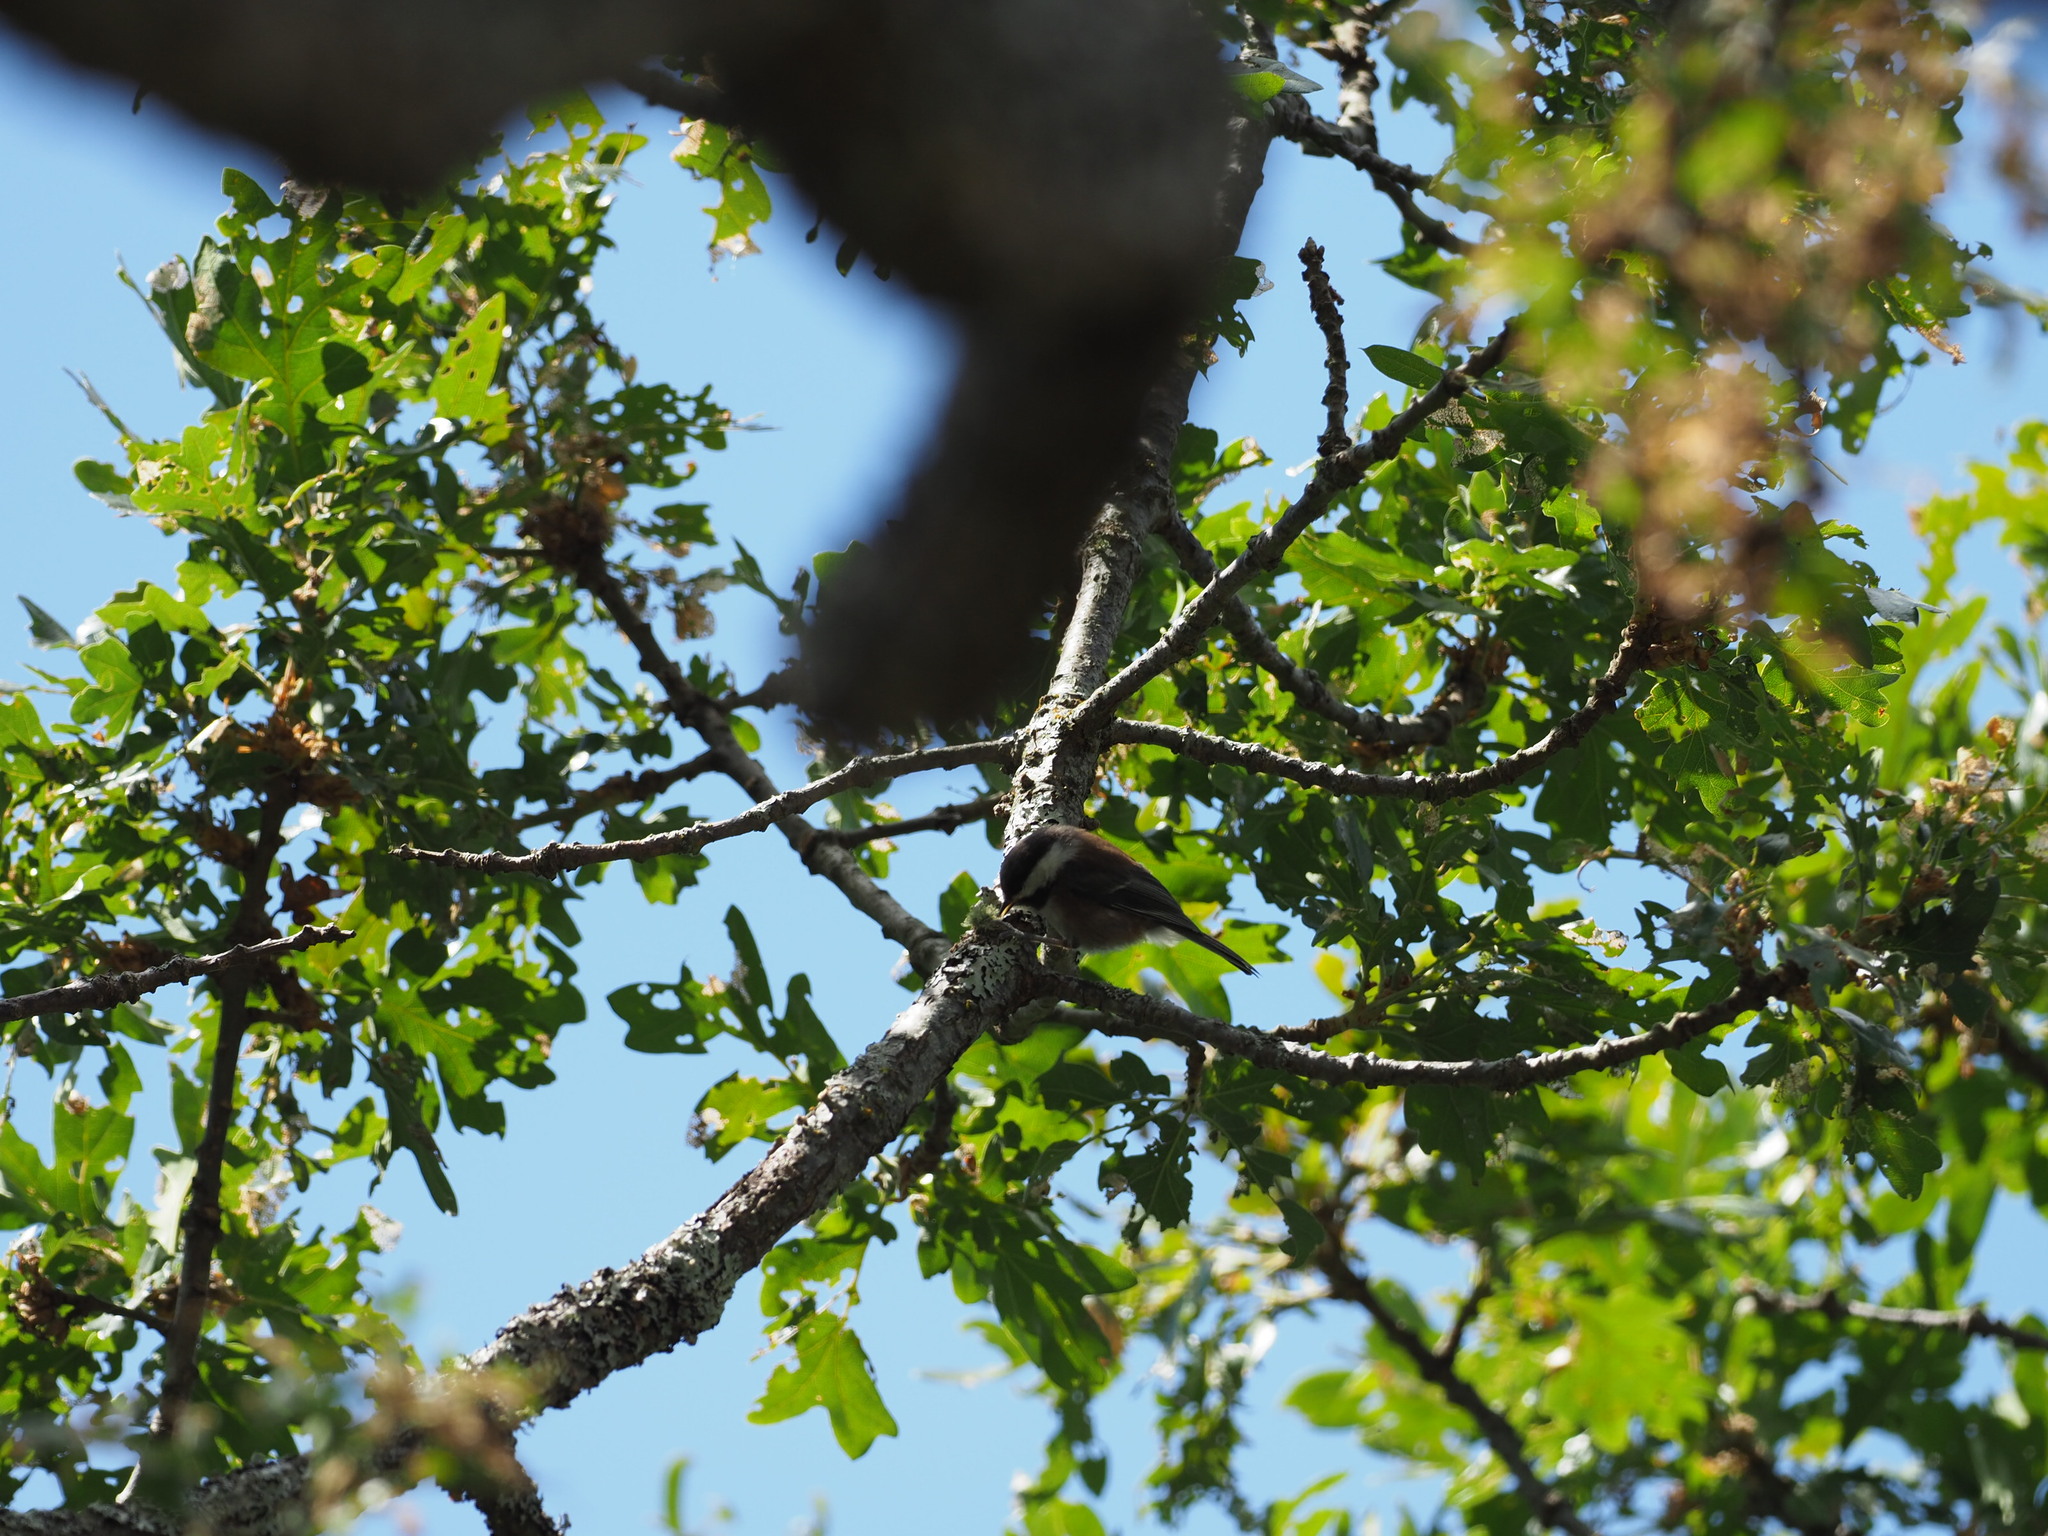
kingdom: Animalia
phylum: Chordata
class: Aves
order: Passeriformes
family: Paridae
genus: Poecile
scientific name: Poecile rufescens
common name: Chestnut-backed chickadee
